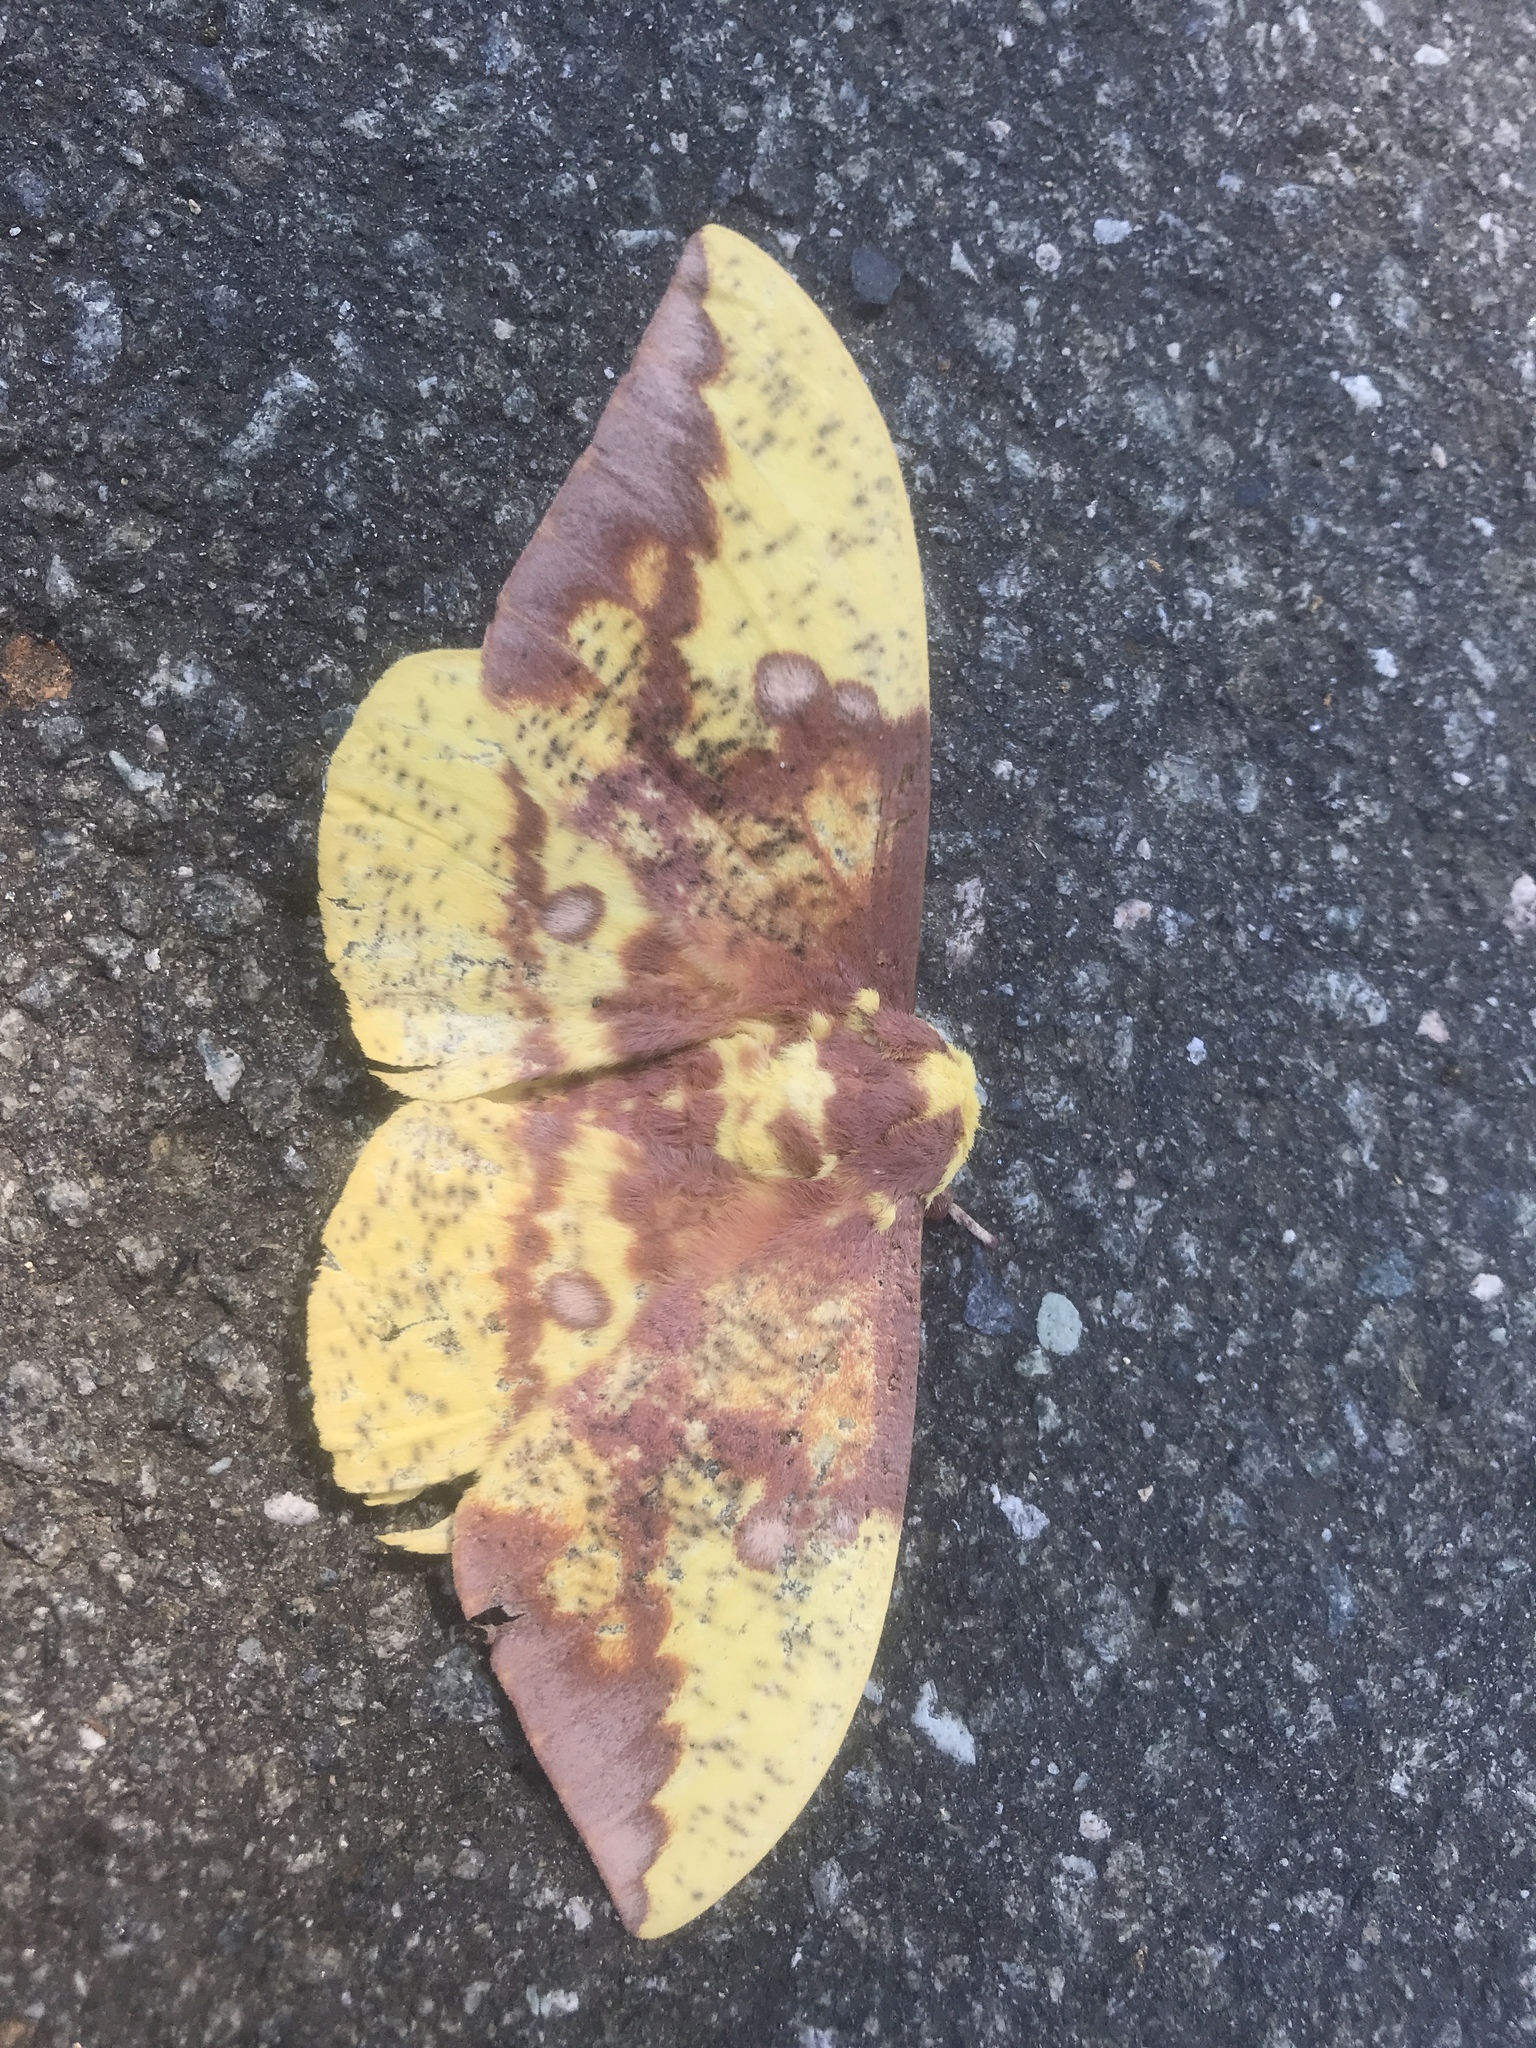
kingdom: Animalia
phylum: Arthropoda
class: Insecta
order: Lepidoptera
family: Saturniidae
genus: Eacles
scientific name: Eacles imperialis
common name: Imperial moth
